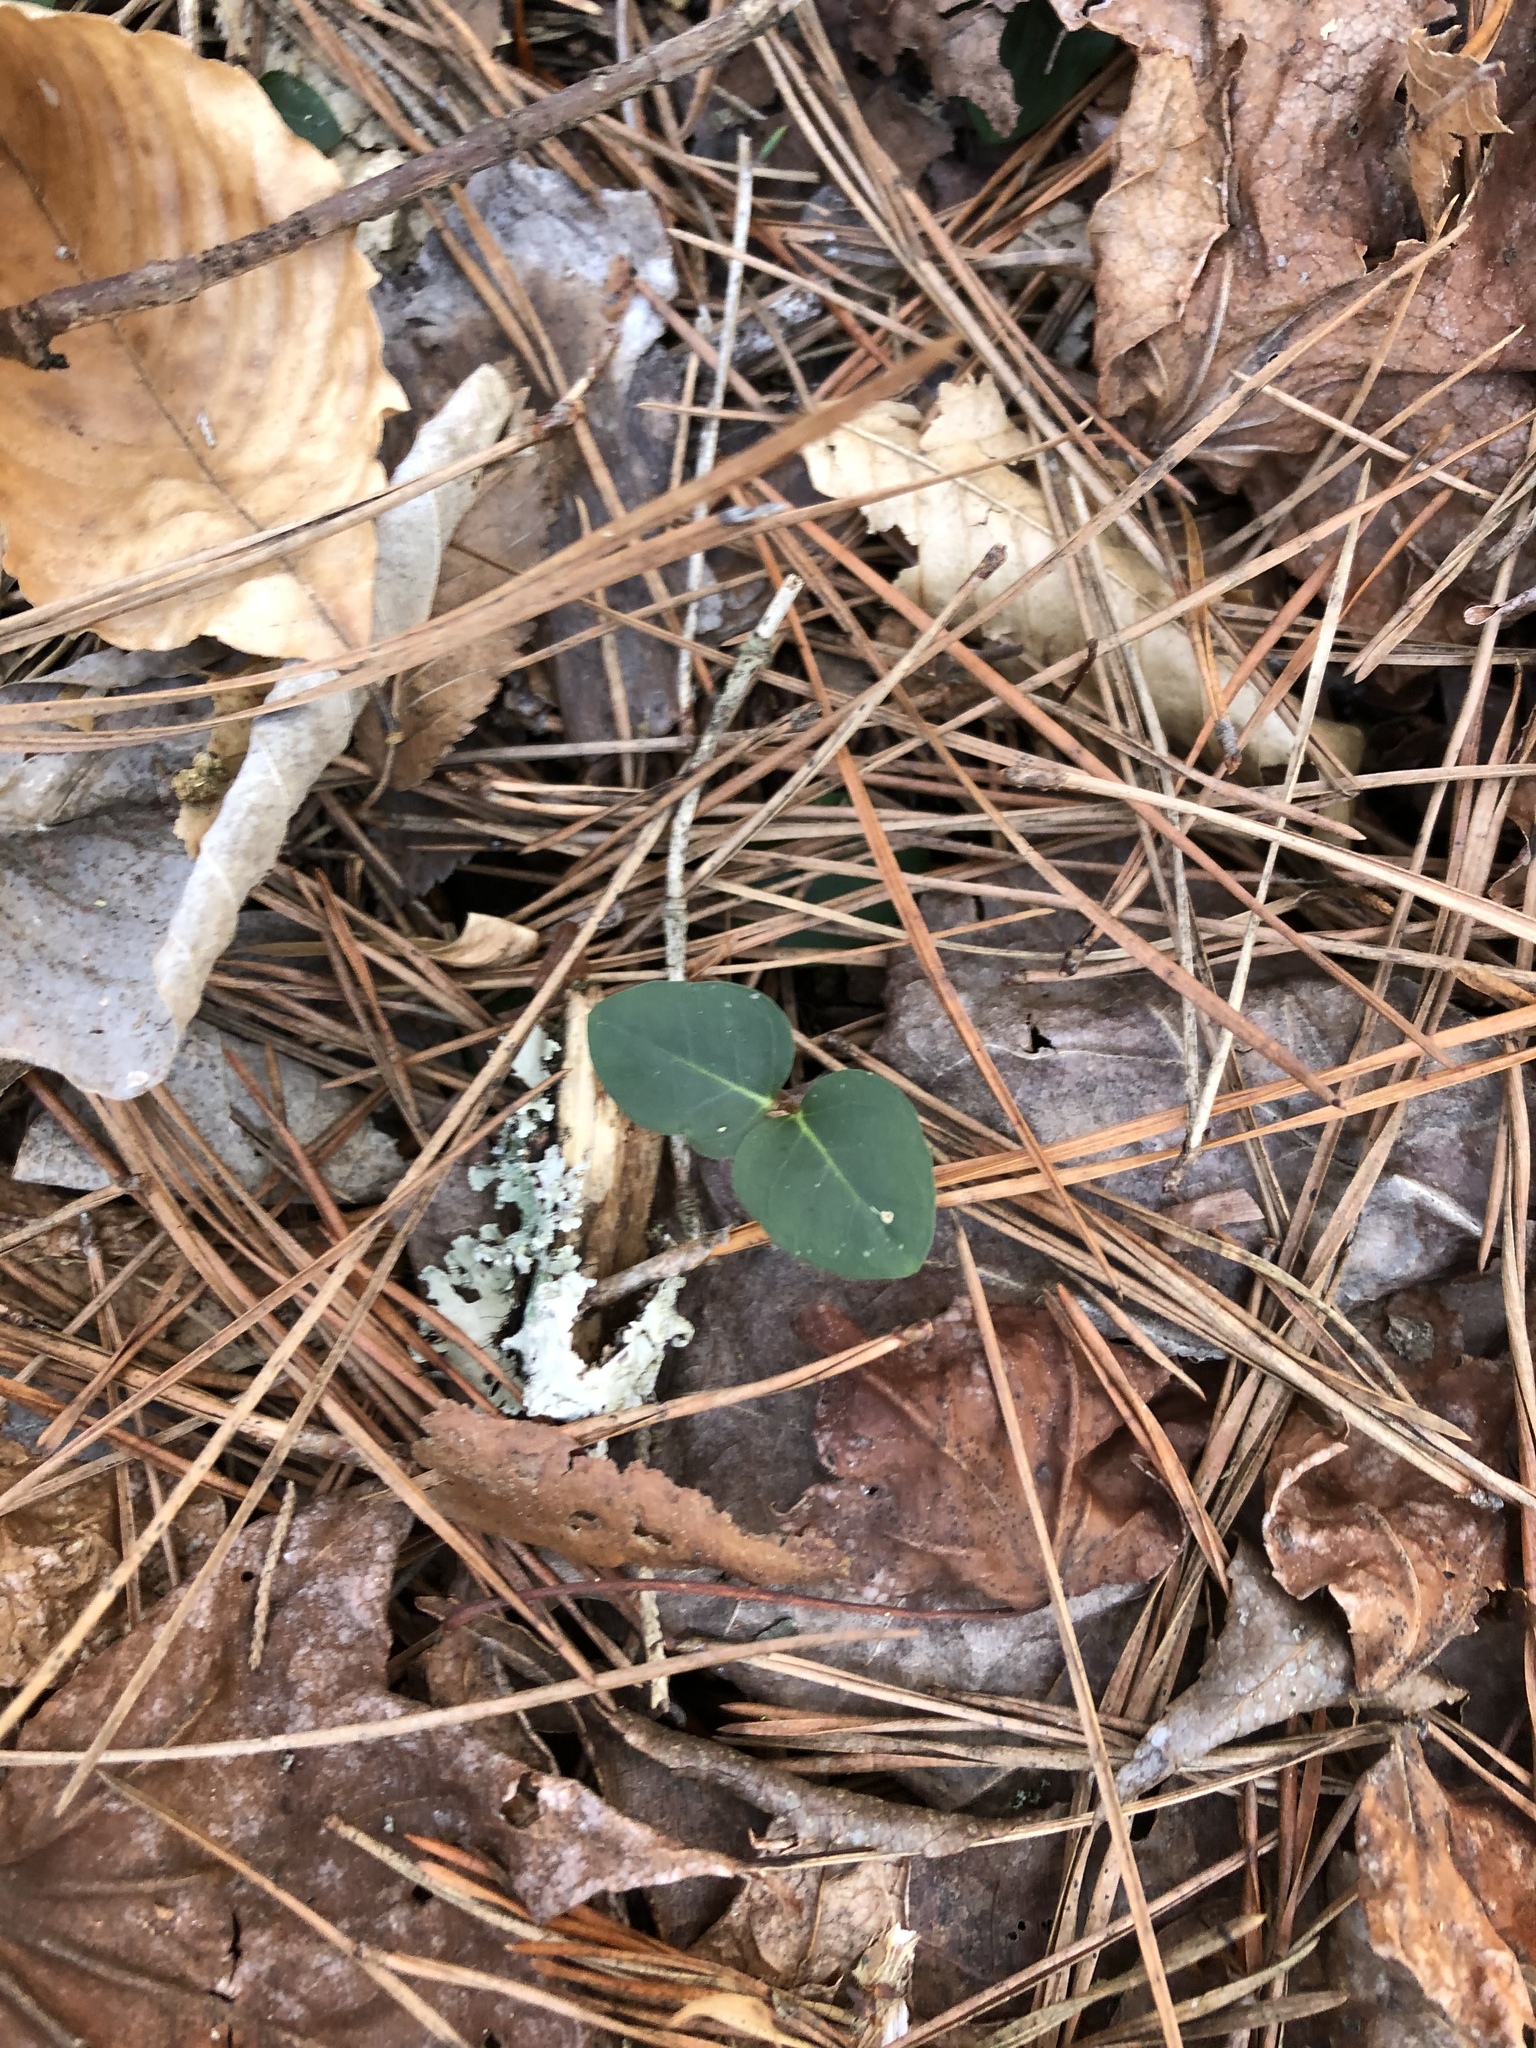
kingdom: Plantae
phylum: Tracheophyta
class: Magnoliopsida
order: Gentianales
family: Rubiaceae
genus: Mitchella
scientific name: Mitchella repens
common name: Partridge-berry
